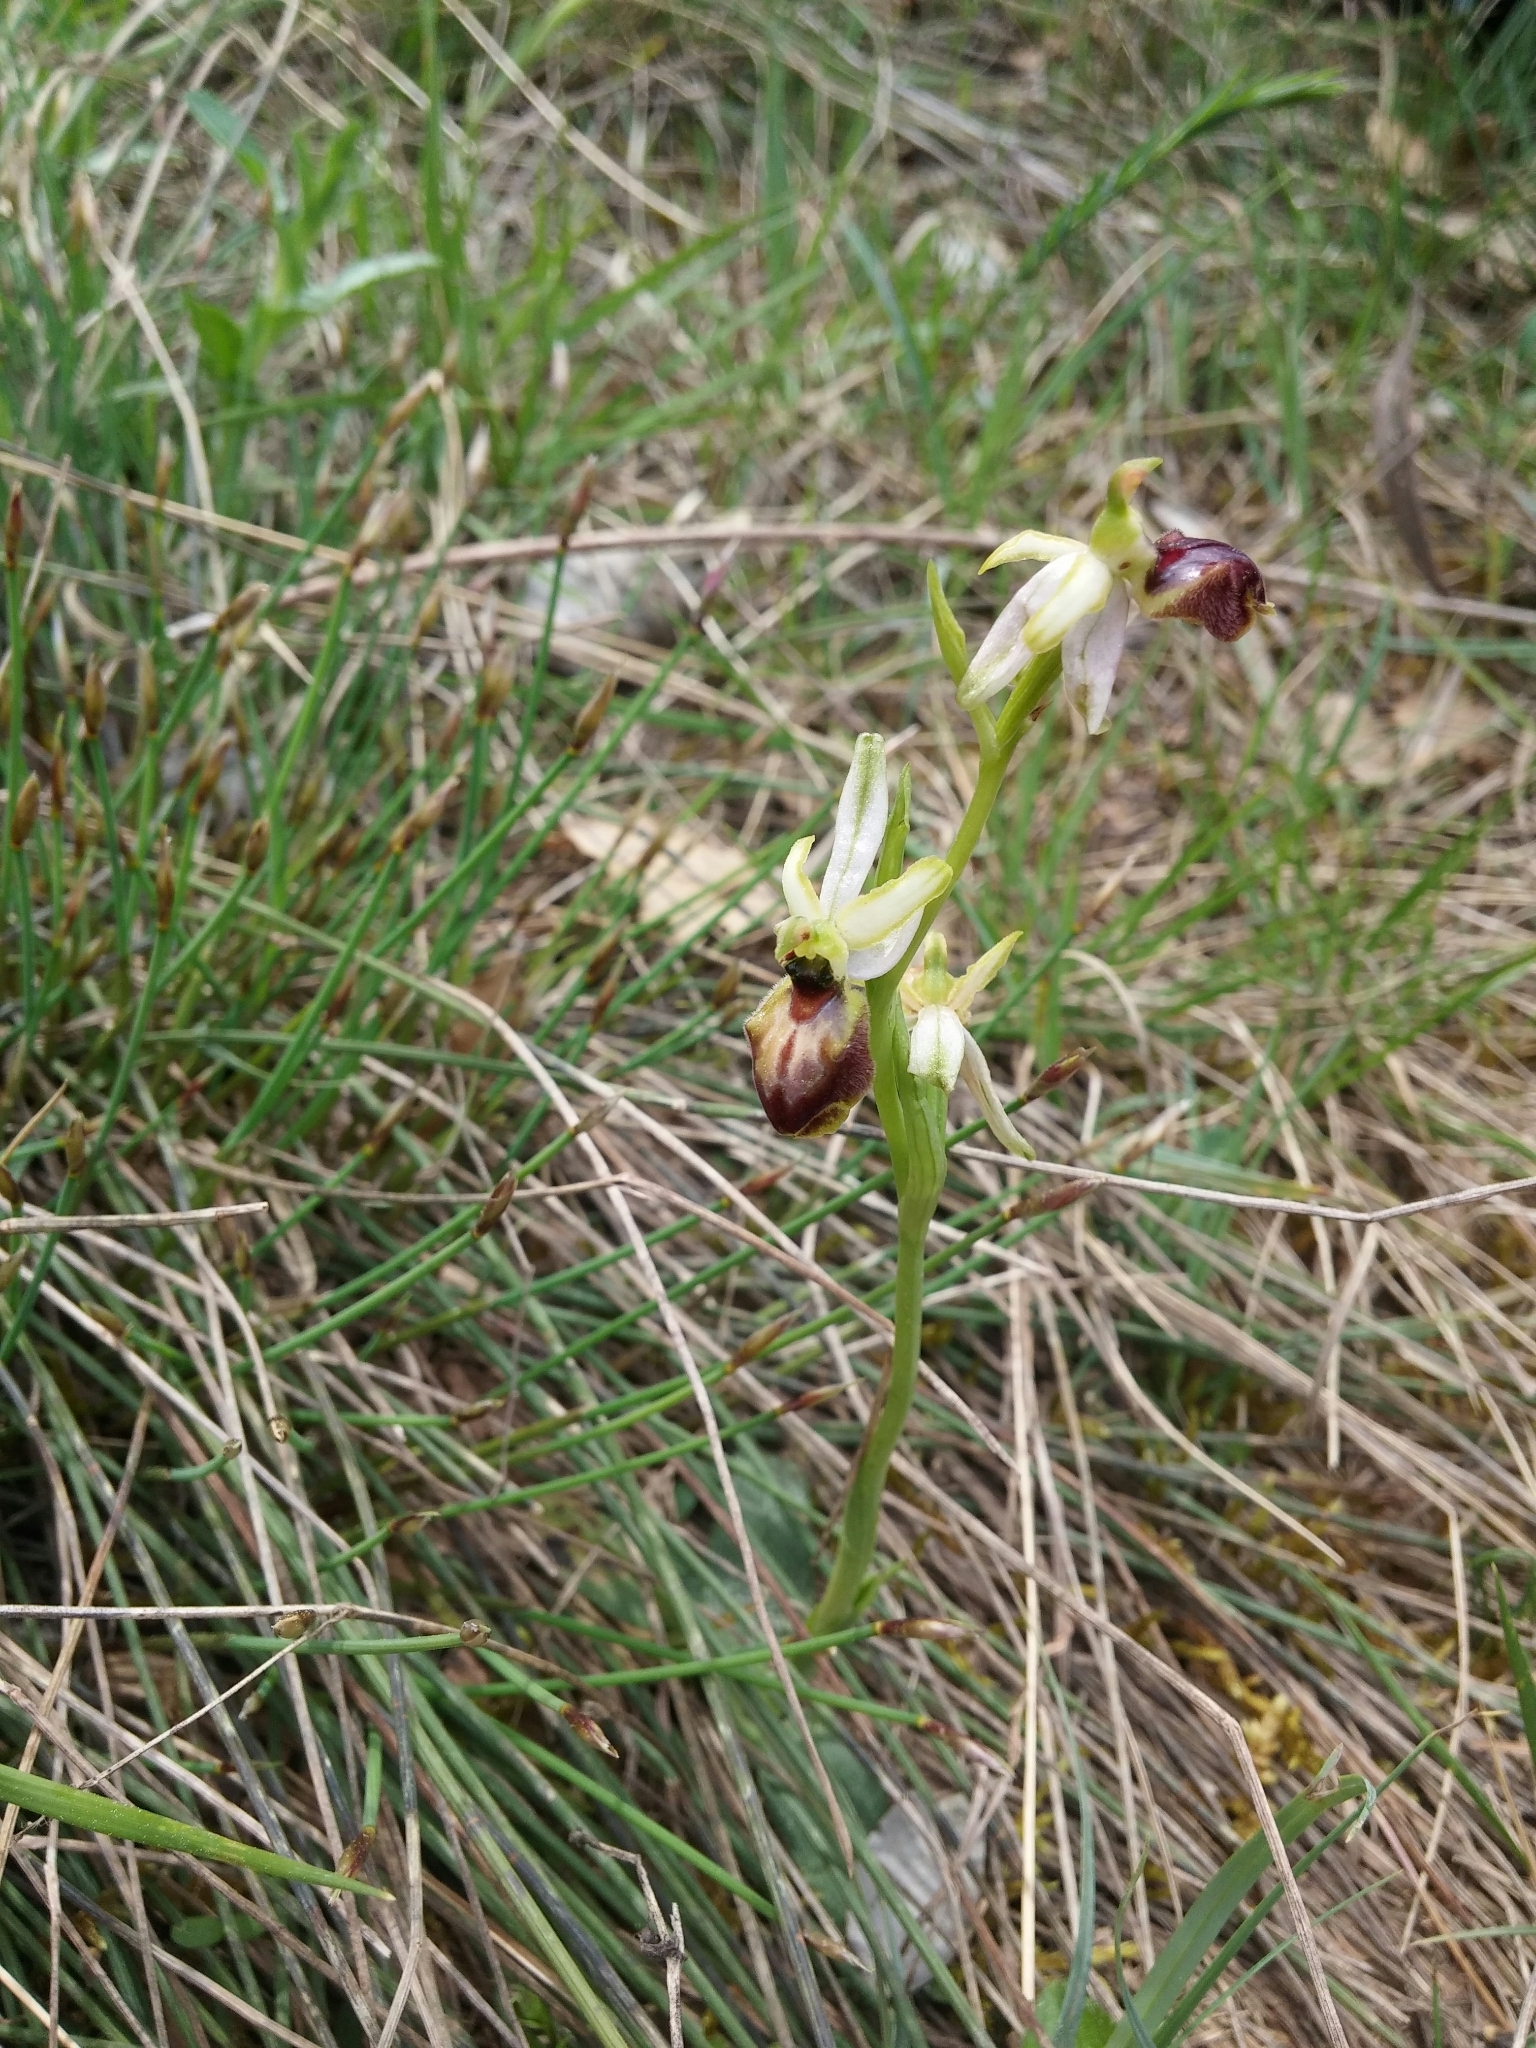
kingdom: Plantae
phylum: Tracheophyta
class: Liliopsida
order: Asparagales
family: Orchidaceae
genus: Ophrys
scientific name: Ophrys sphegodes
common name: Early spider-orchid
